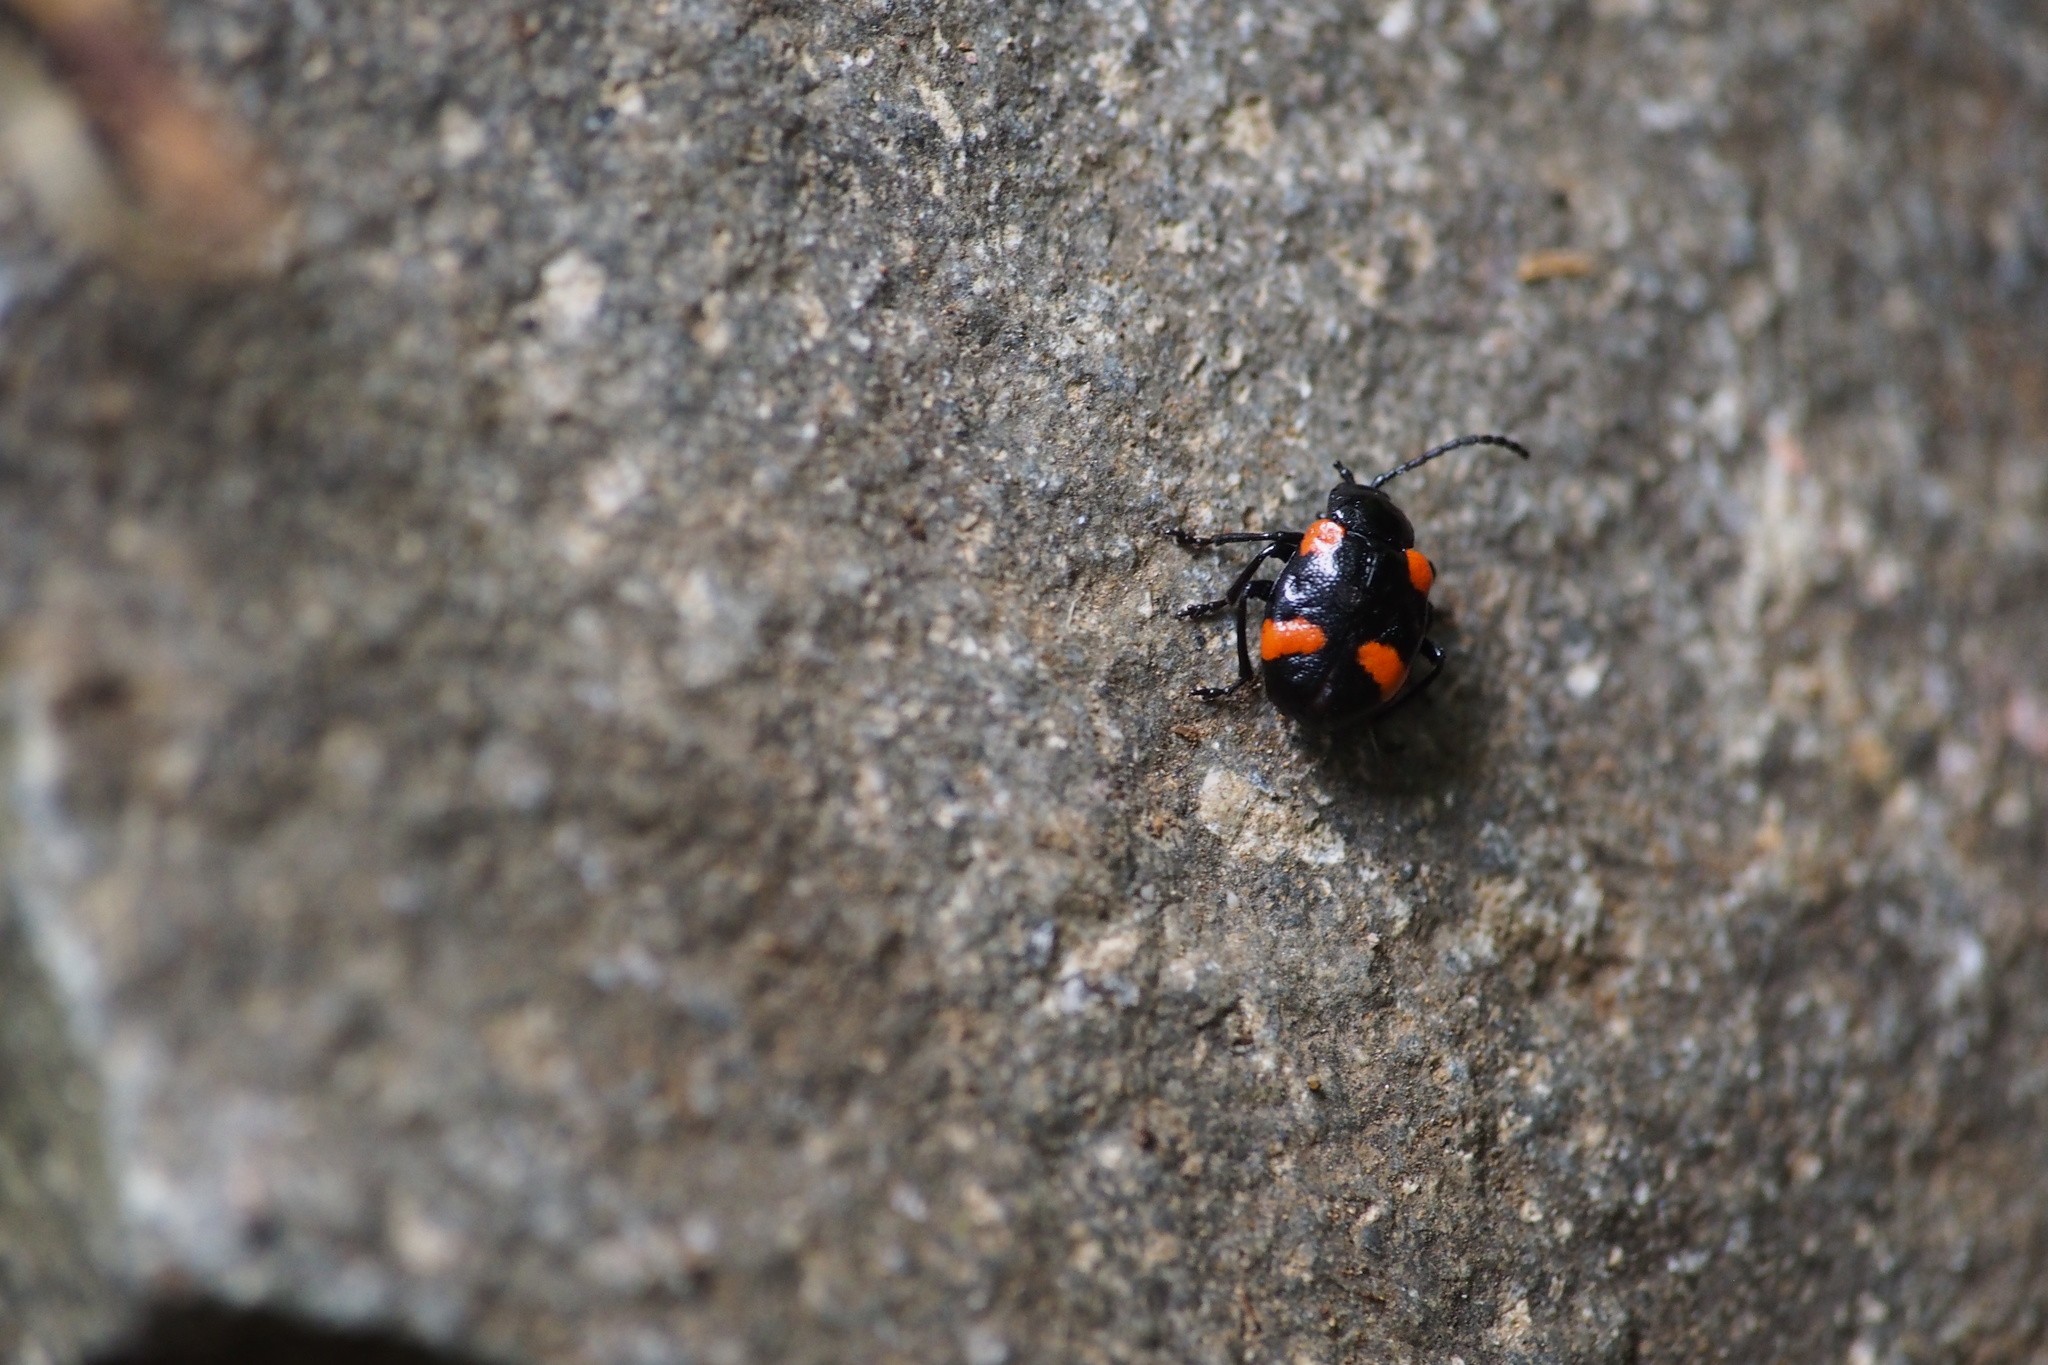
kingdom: Animalia
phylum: Arthropoda
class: Insecta
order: Coleoptera
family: Chrysomelidae
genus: Hamushia
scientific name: Hamushia
